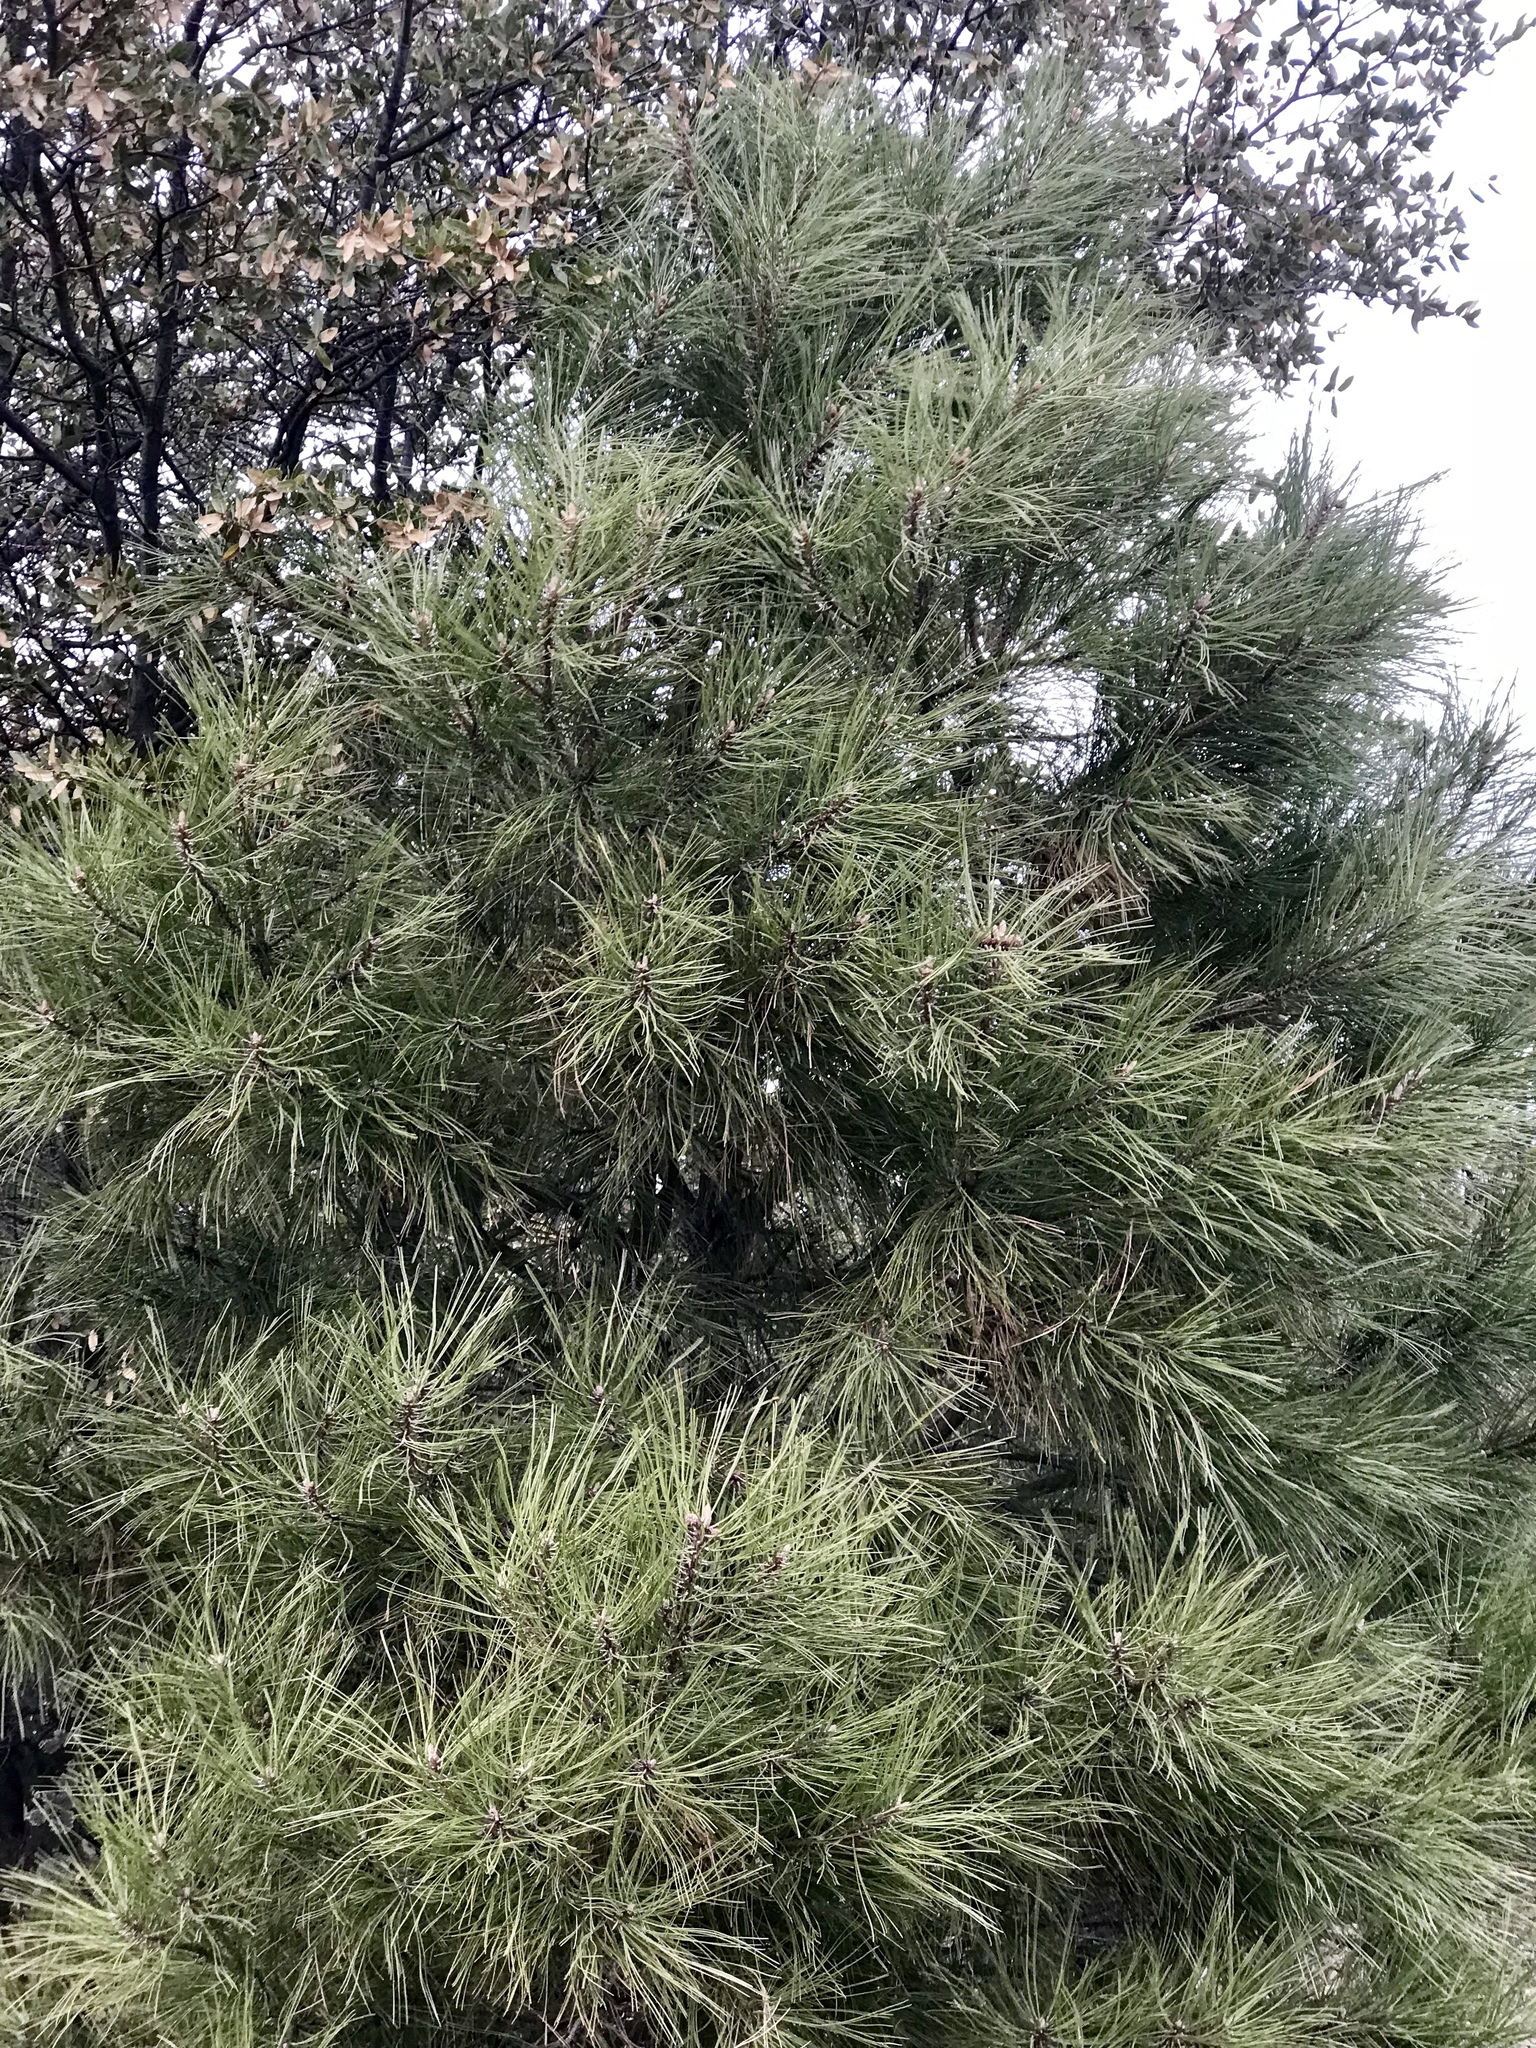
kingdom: Plantae
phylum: Tracheophyta
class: Pinopsida
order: Pinales
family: Pinaceae
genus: Pinus
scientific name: Pinus ponderosa
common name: Western yellow-pine
